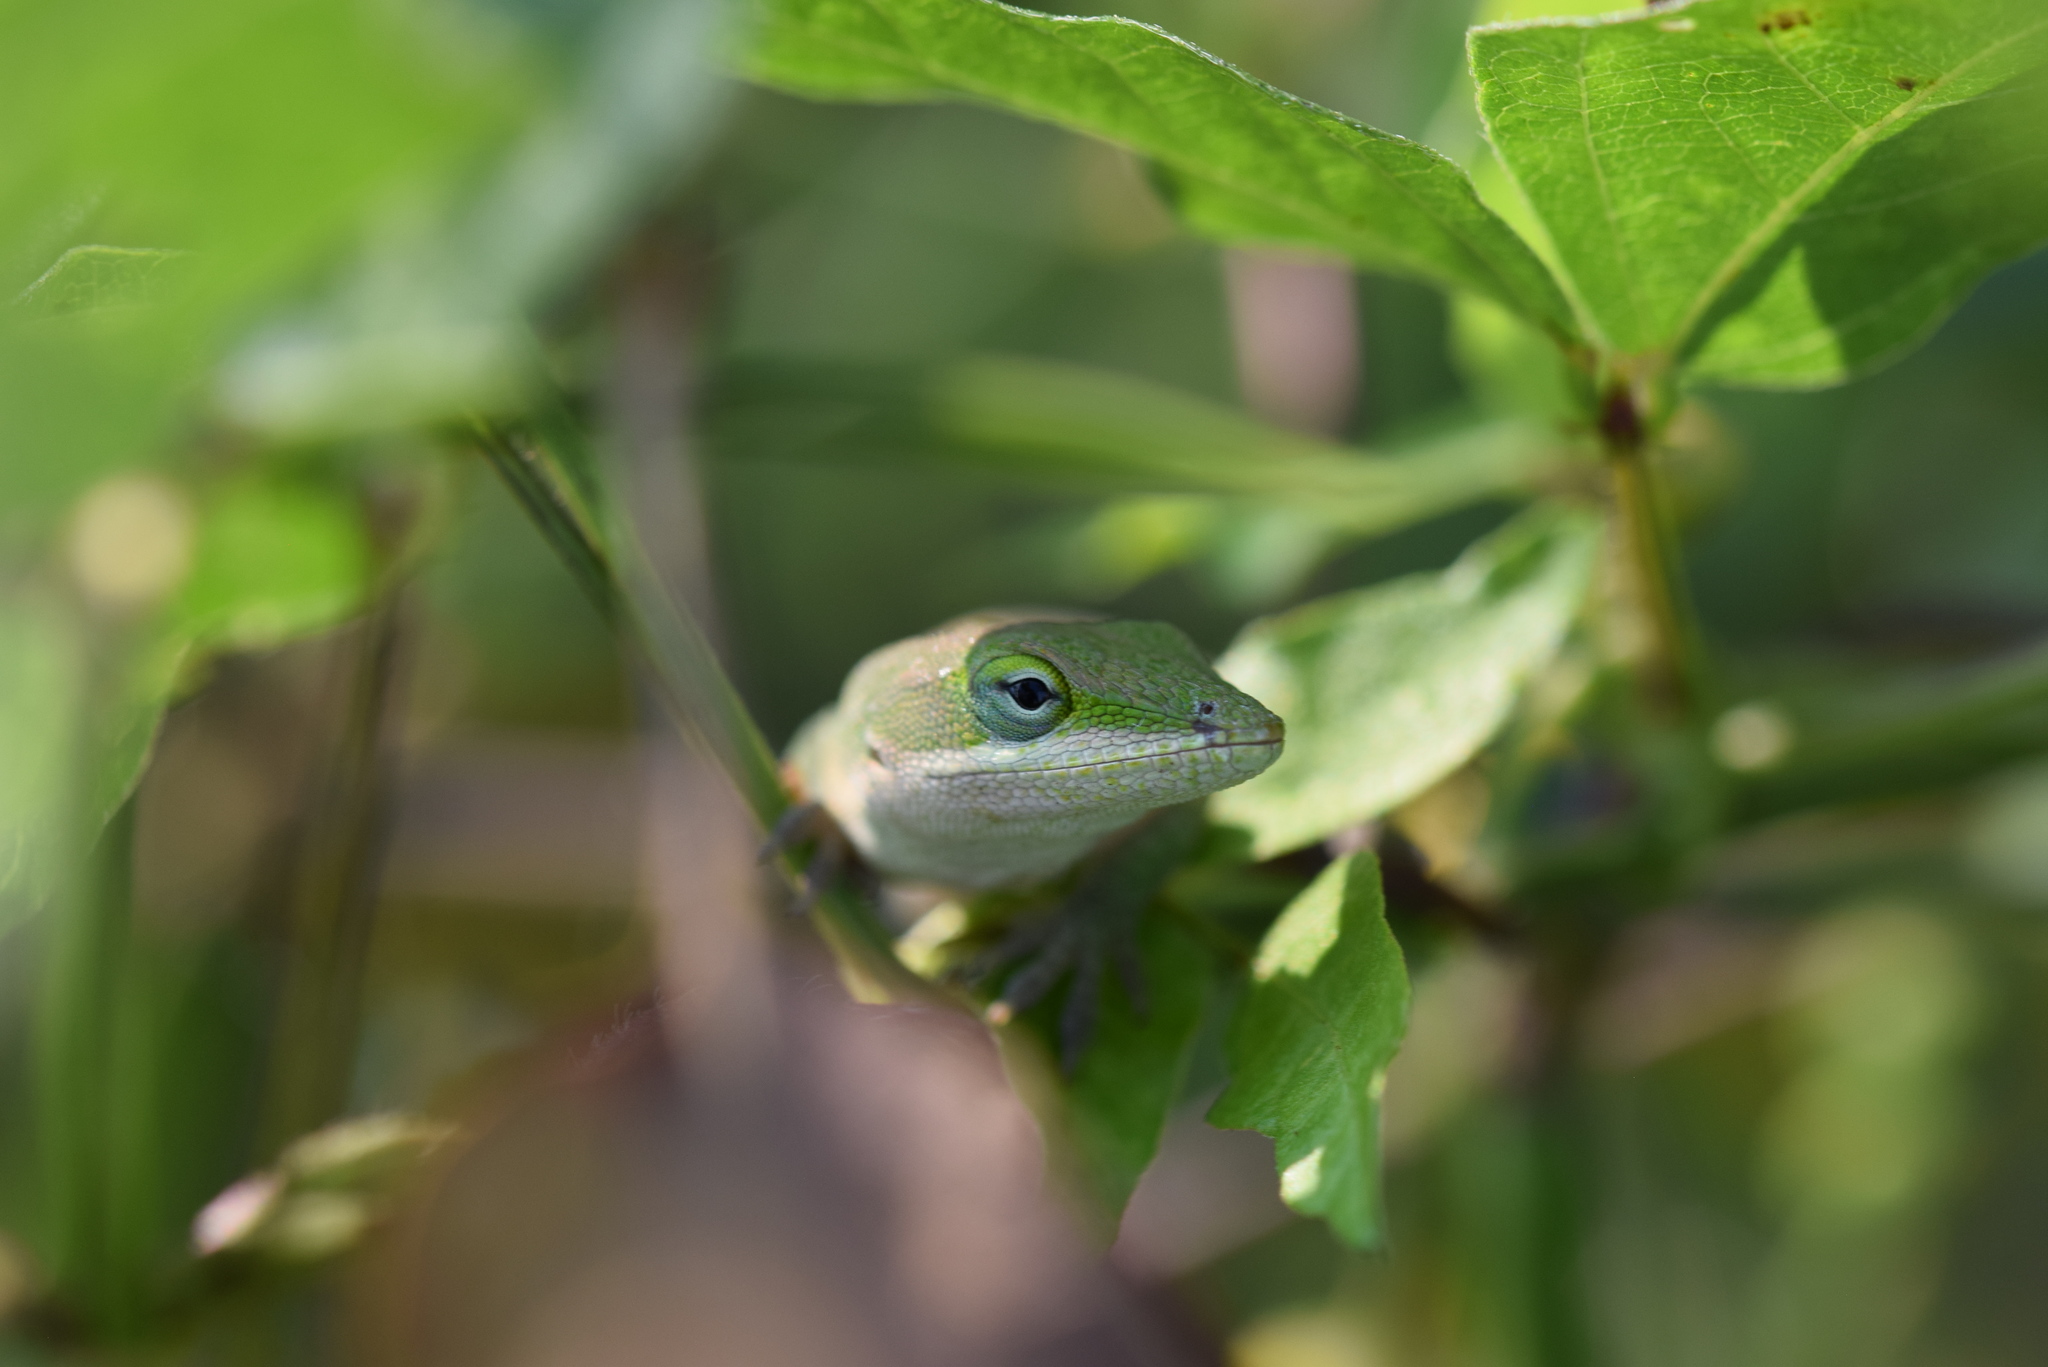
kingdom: Animalia
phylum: Chordata
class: Squamata
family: Dactyloidae
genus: Anolis
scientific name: Anolis carolinensis
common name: Green anole
